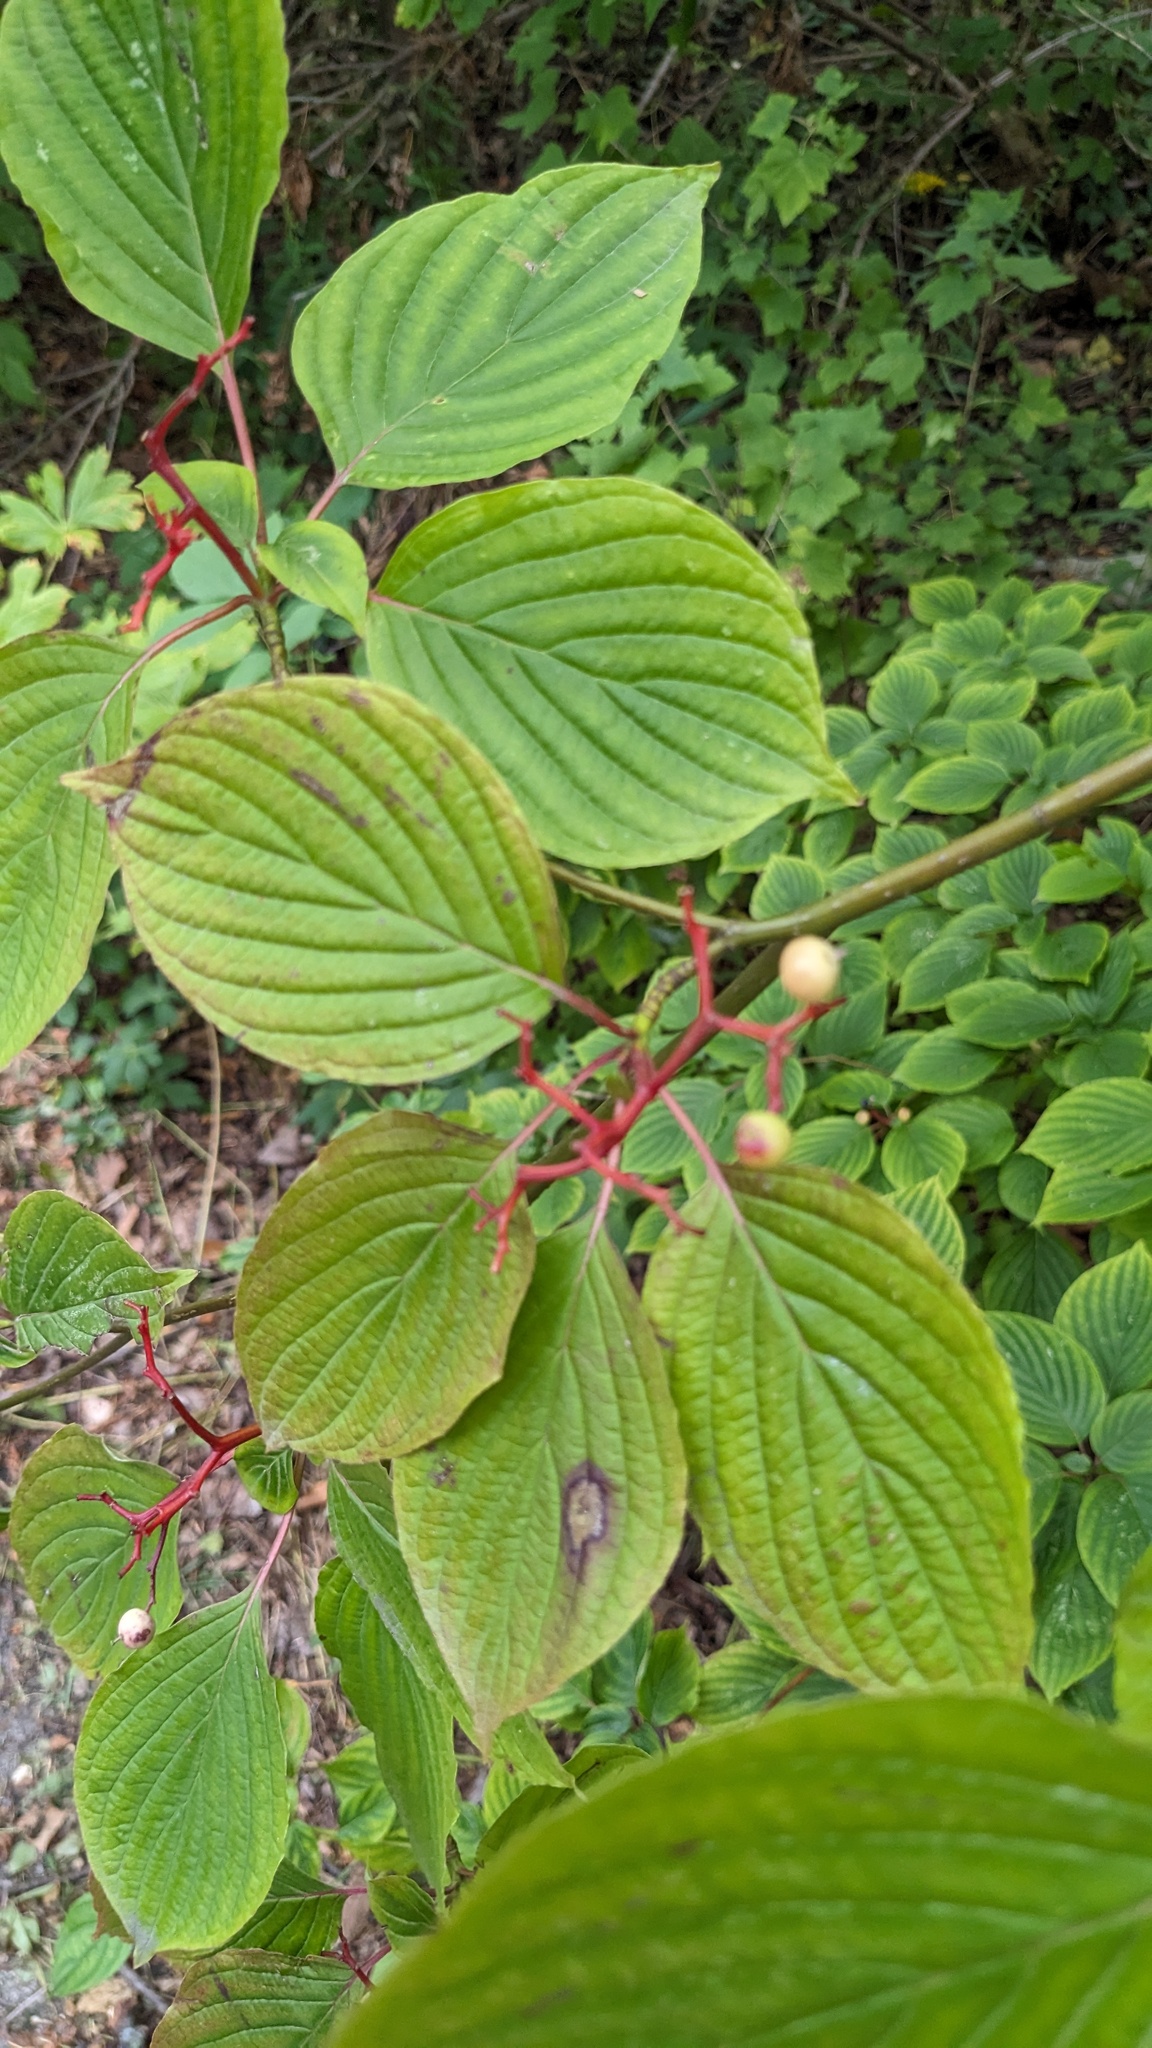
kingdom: Plantae
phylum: Tracheophyta
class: Magnoliopsida
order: Cornales
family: Cornaceae
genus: Cornus
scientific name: Cornus alternifolia
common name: Pagoda dogwood
